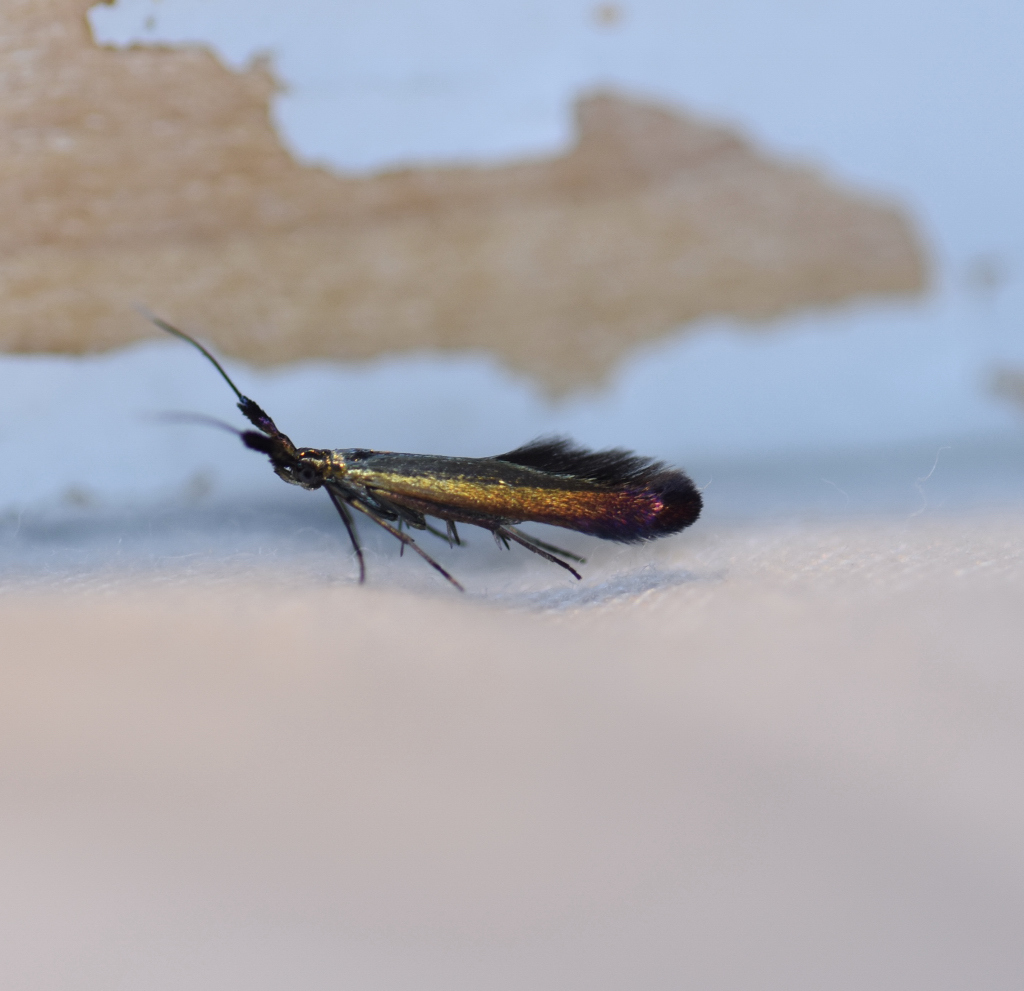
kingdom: Animalia
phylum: Arthropoda
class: Insecta
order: Lepidoptera
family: Coleophoridae
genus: Coleophora
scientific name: Coleophora mayrella
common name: Meadow case-bearer
